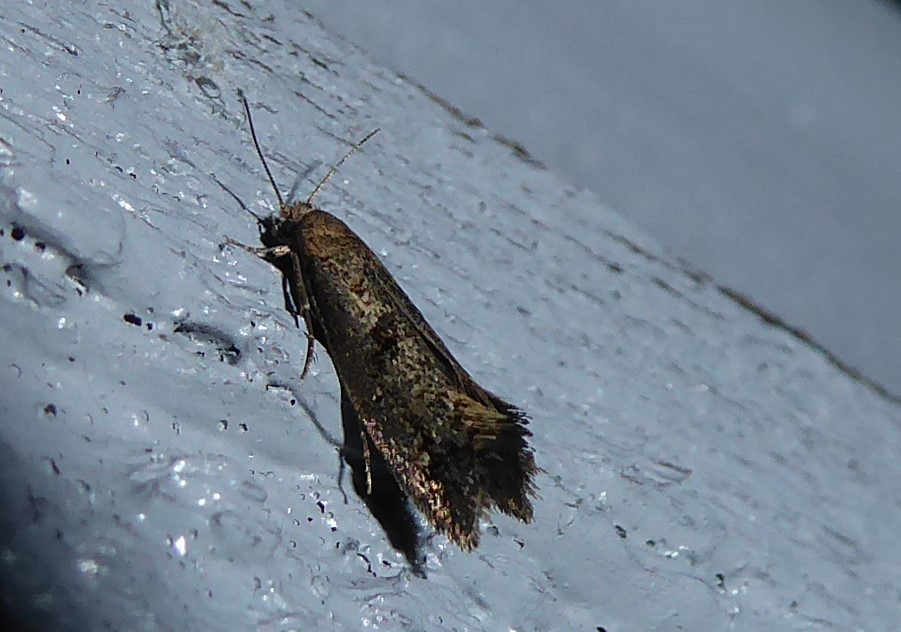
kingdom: Animalia
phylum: Arthropoda
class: Insecta
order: Lepidoptera
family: Tineidae
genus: Tinea
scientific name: Tinea mochlota
